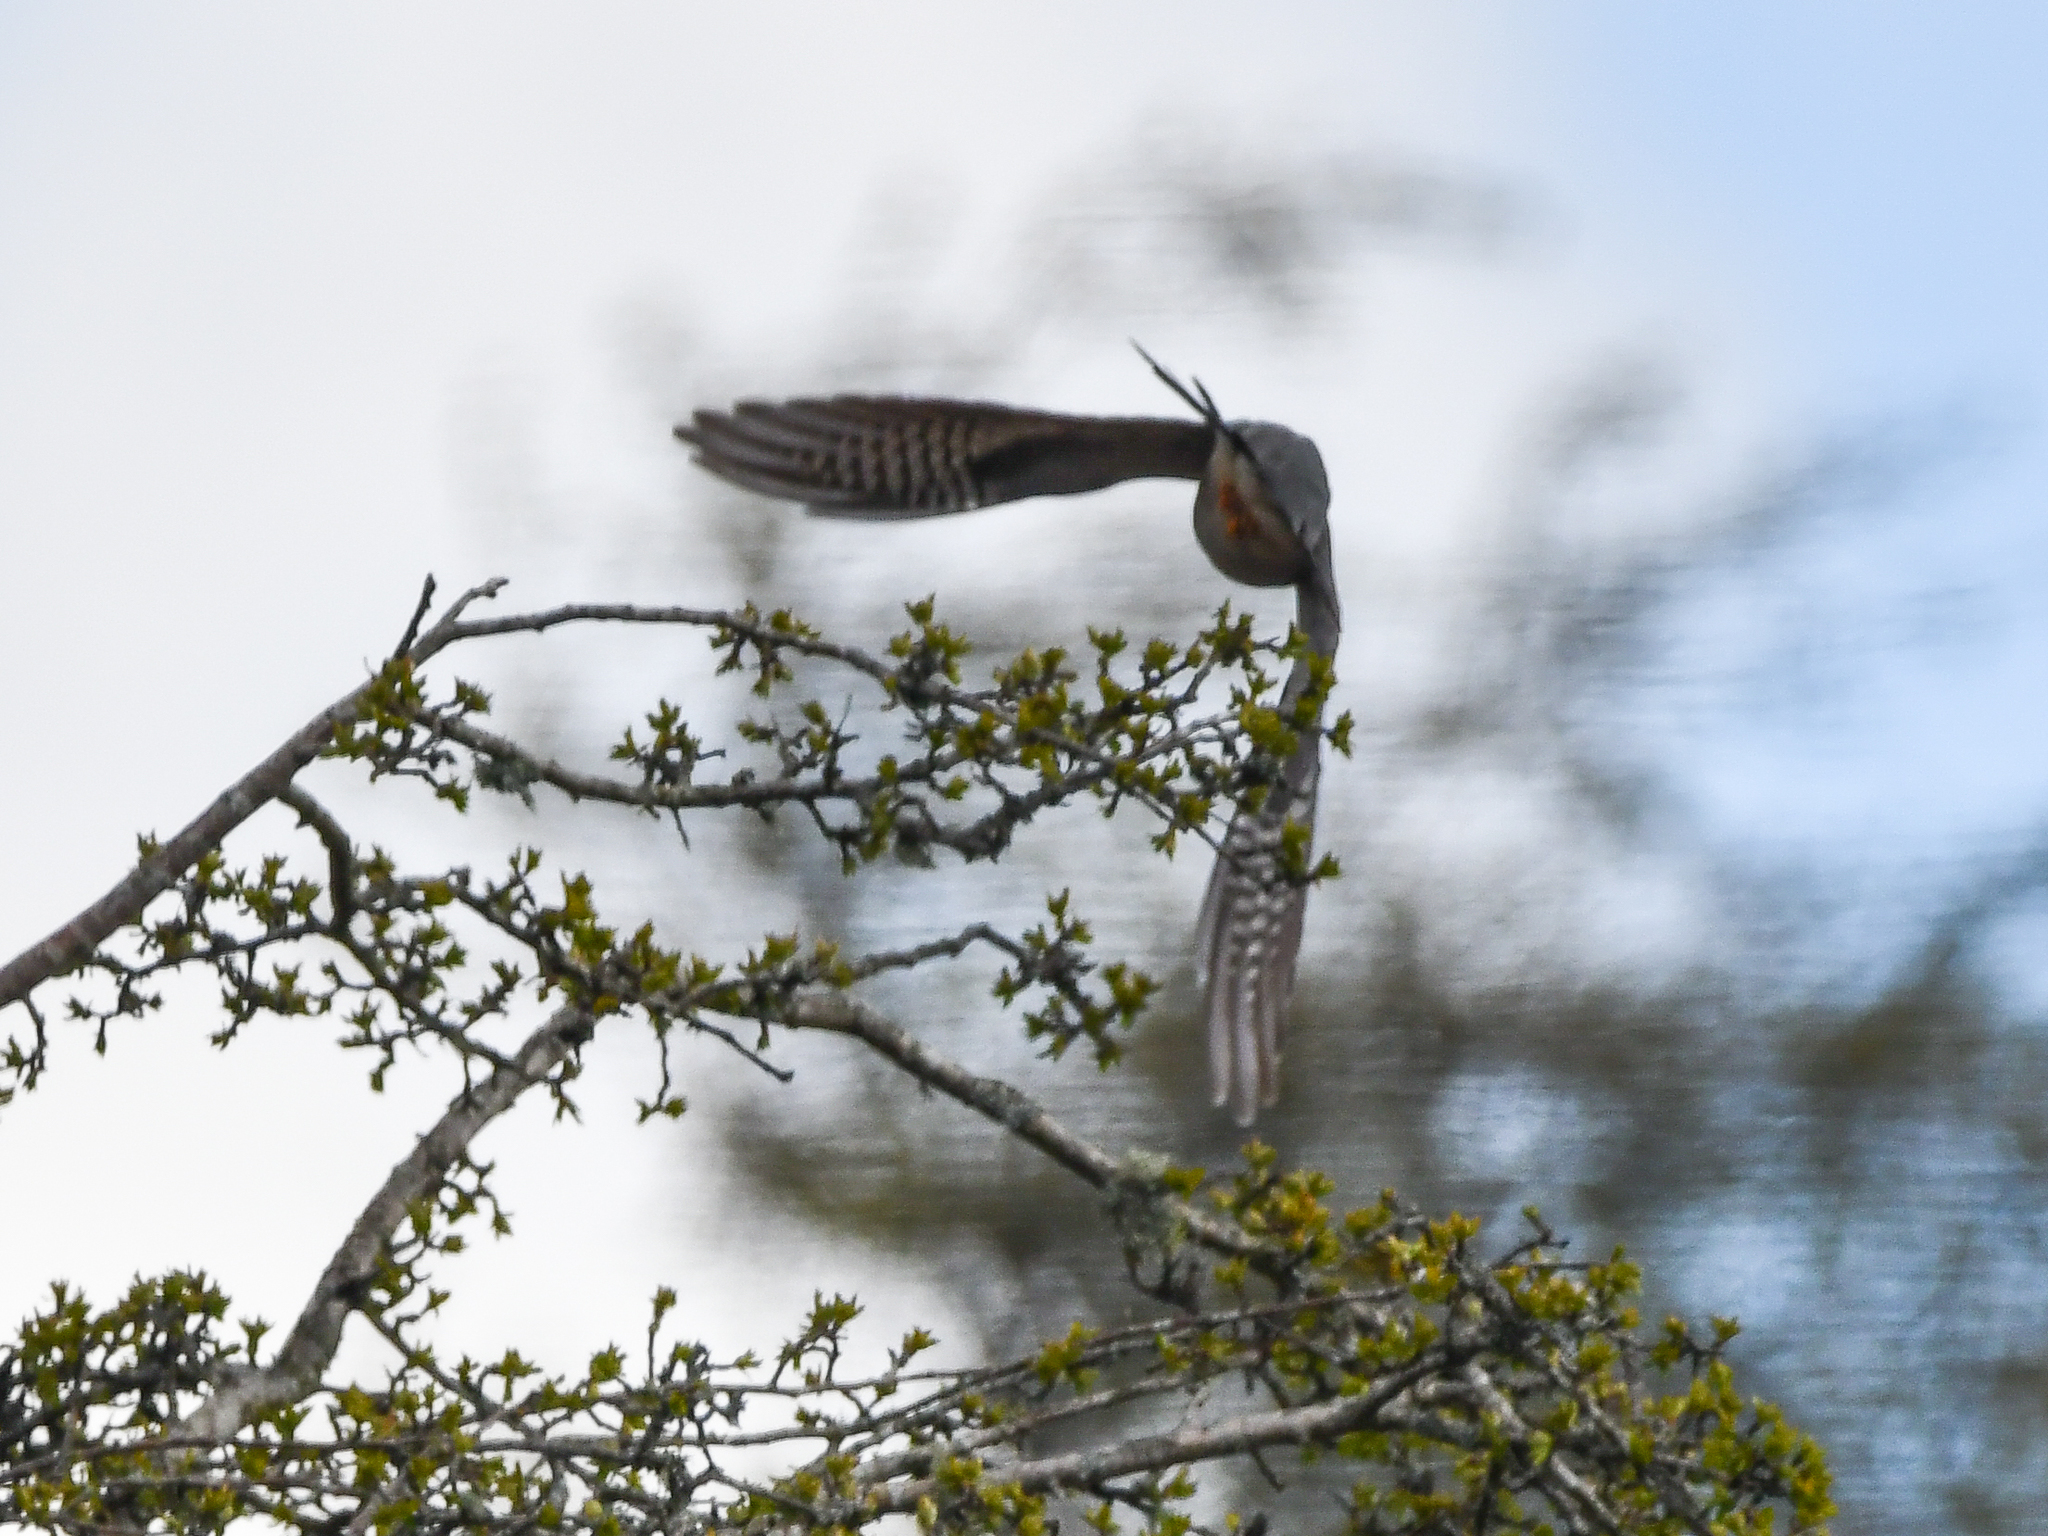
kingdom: Animalia
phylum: Chordata
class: Aves
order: Cuculiformes
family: Cuculidae
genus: Cuculus
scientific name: Cuculus canorus
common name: Common cuckoo
